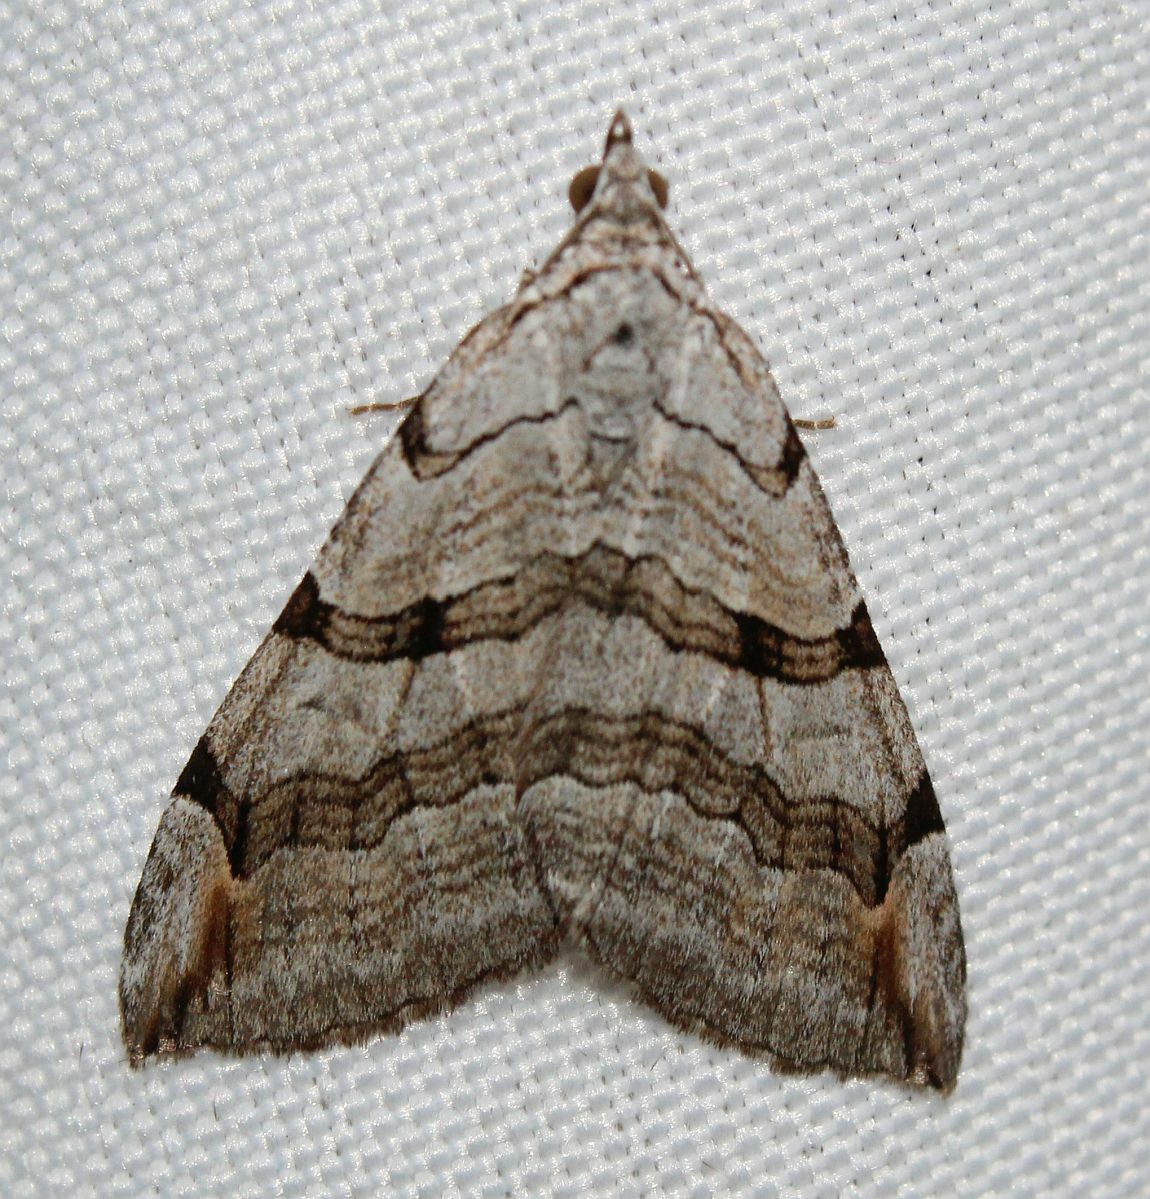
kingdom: Animalia
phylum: Arthropoda
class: Insecta
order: Lepidoptera
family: Geometridae
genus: Aplocera
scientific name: Aplocera plagiata
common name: Treble-bar
